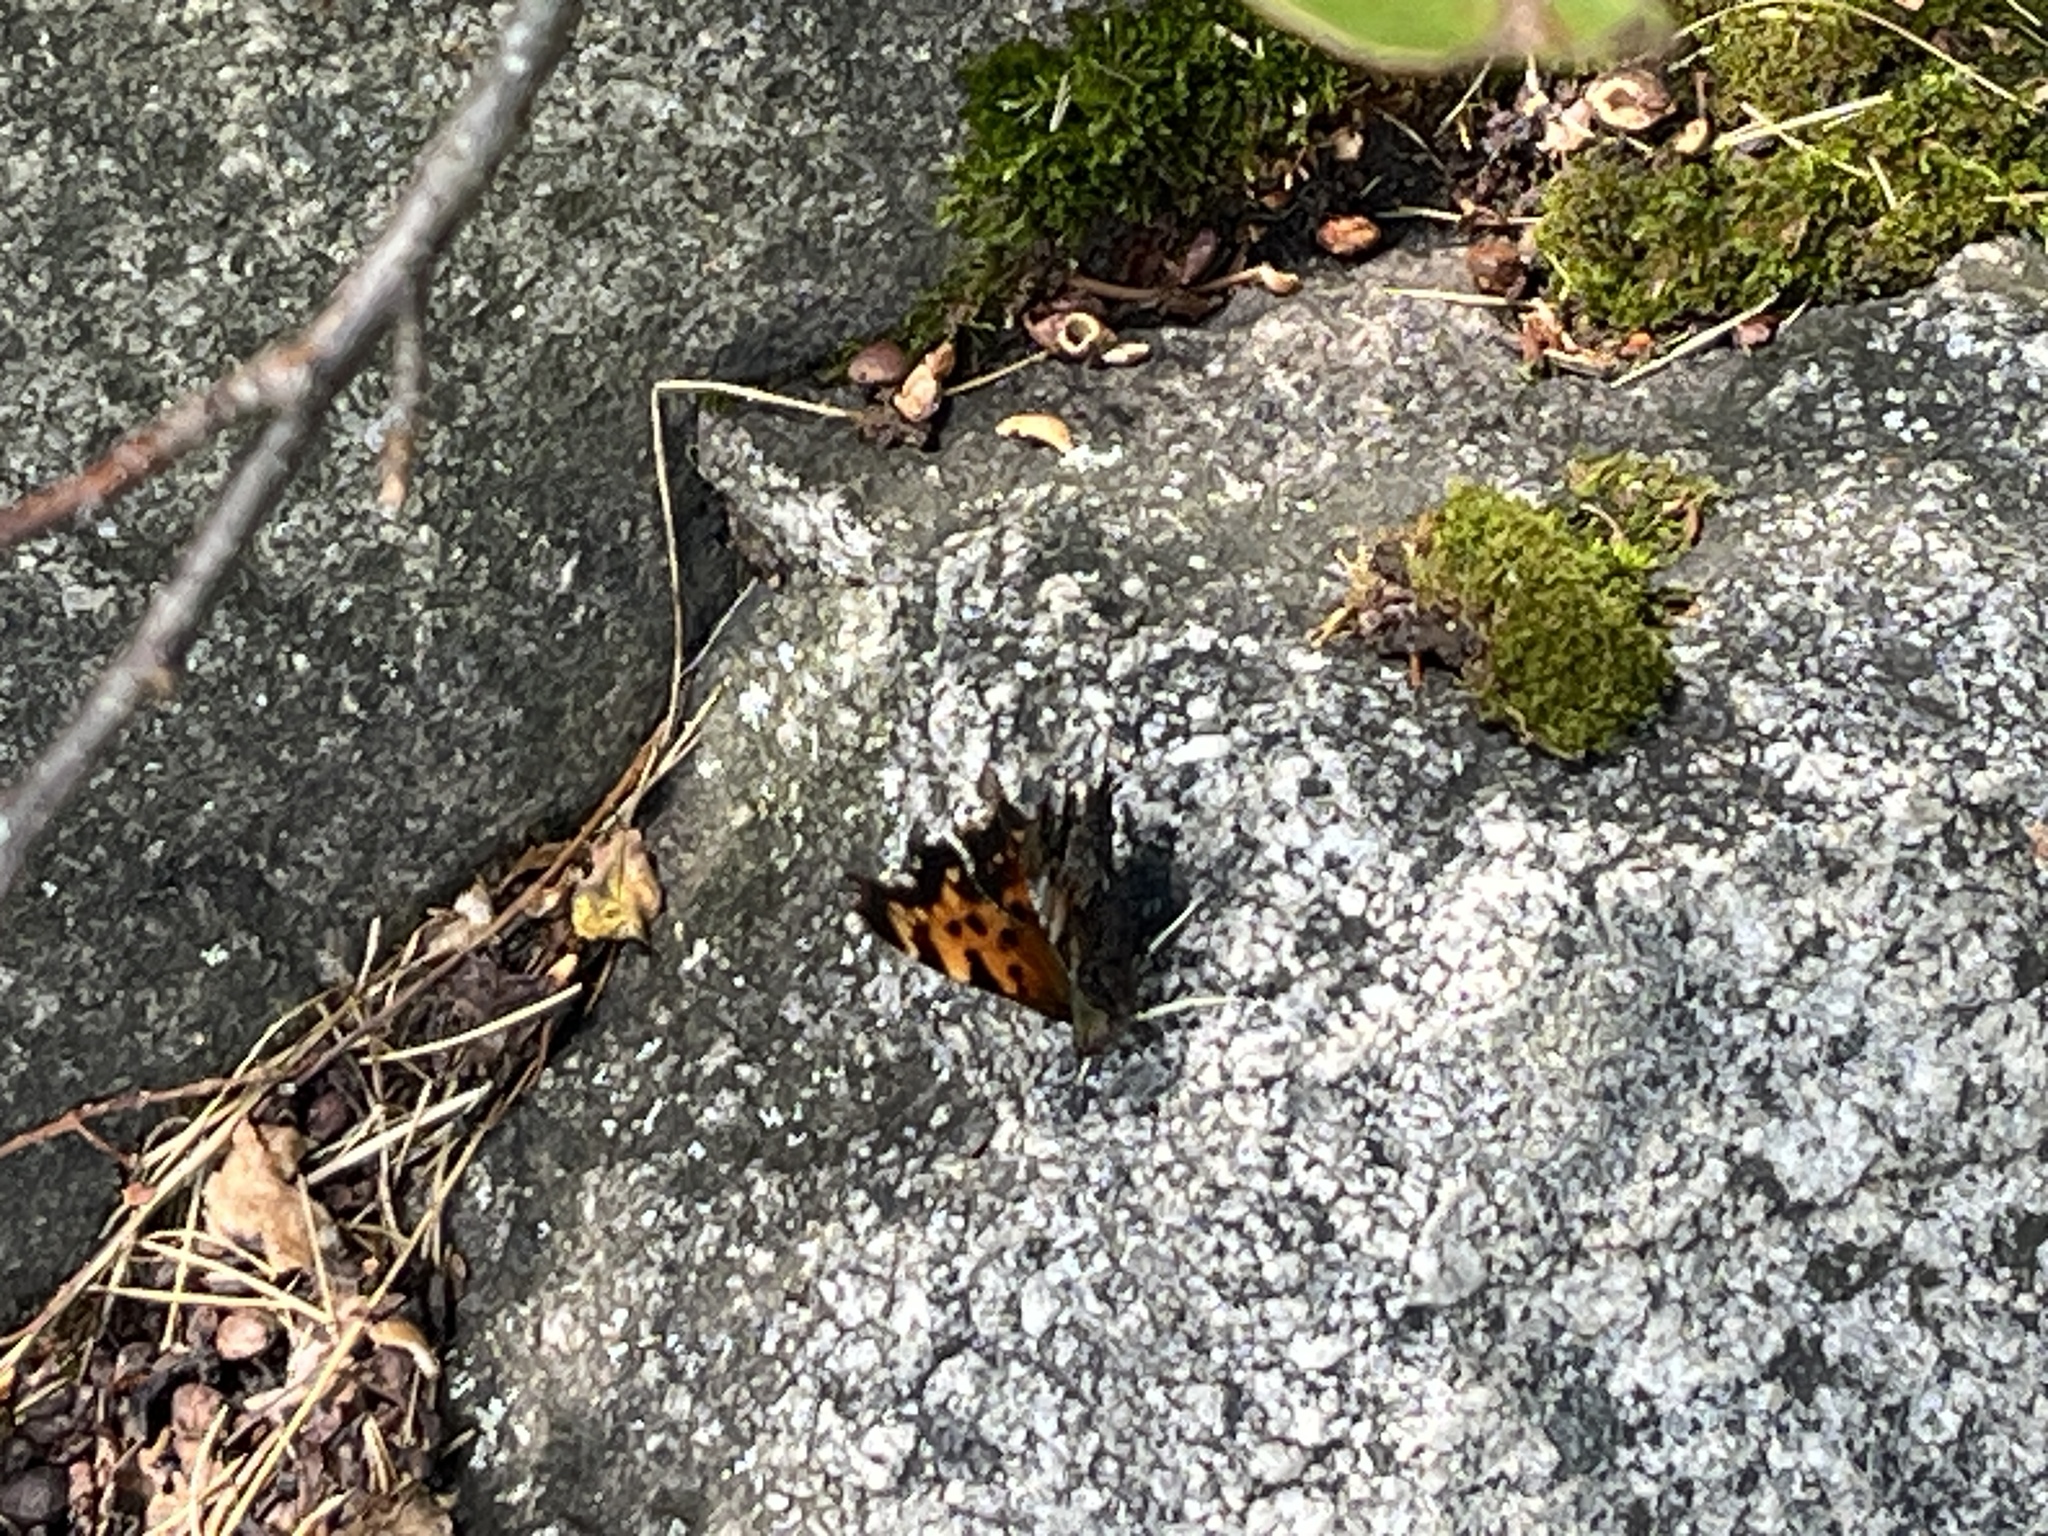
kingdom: Animalia
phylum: Arthropoda
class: Insecta
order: Lepidoptera
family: Nymphalidae
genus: Polygonia
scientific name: Polygonia faunus
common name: Green comma
